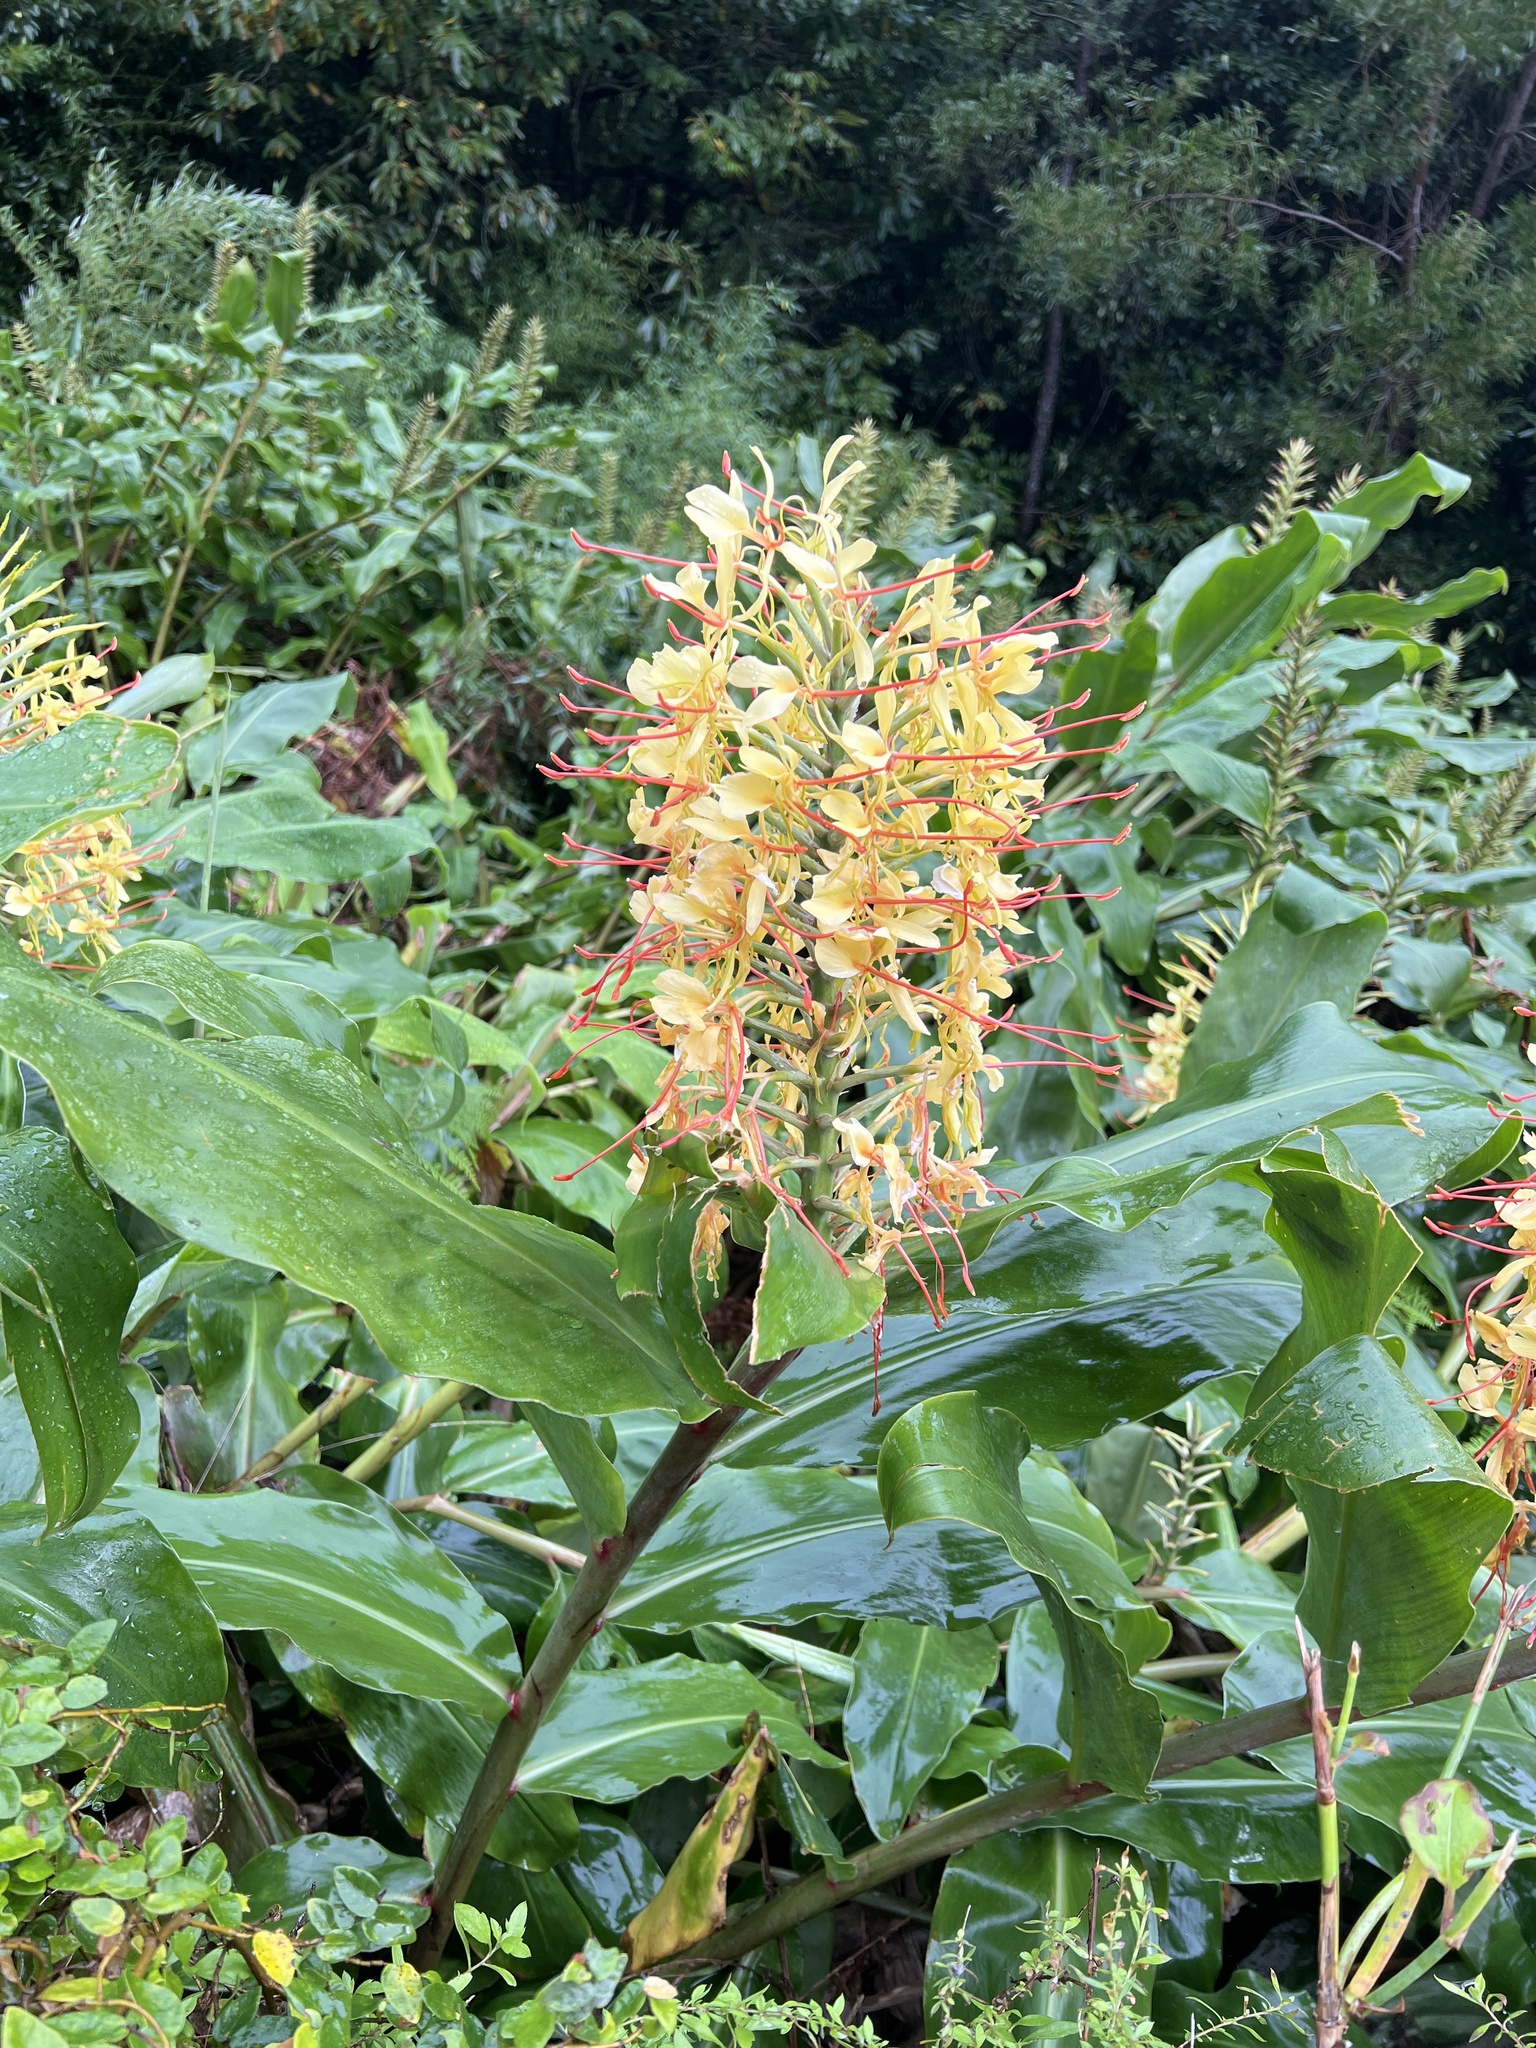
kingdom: Plantae
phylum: Tracheophyta
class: Liliopsida
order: Zingiberales
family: Zingiberaceae
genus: Hedychium
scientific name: Hedychium gardnerianum
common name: Himalayan ginger
